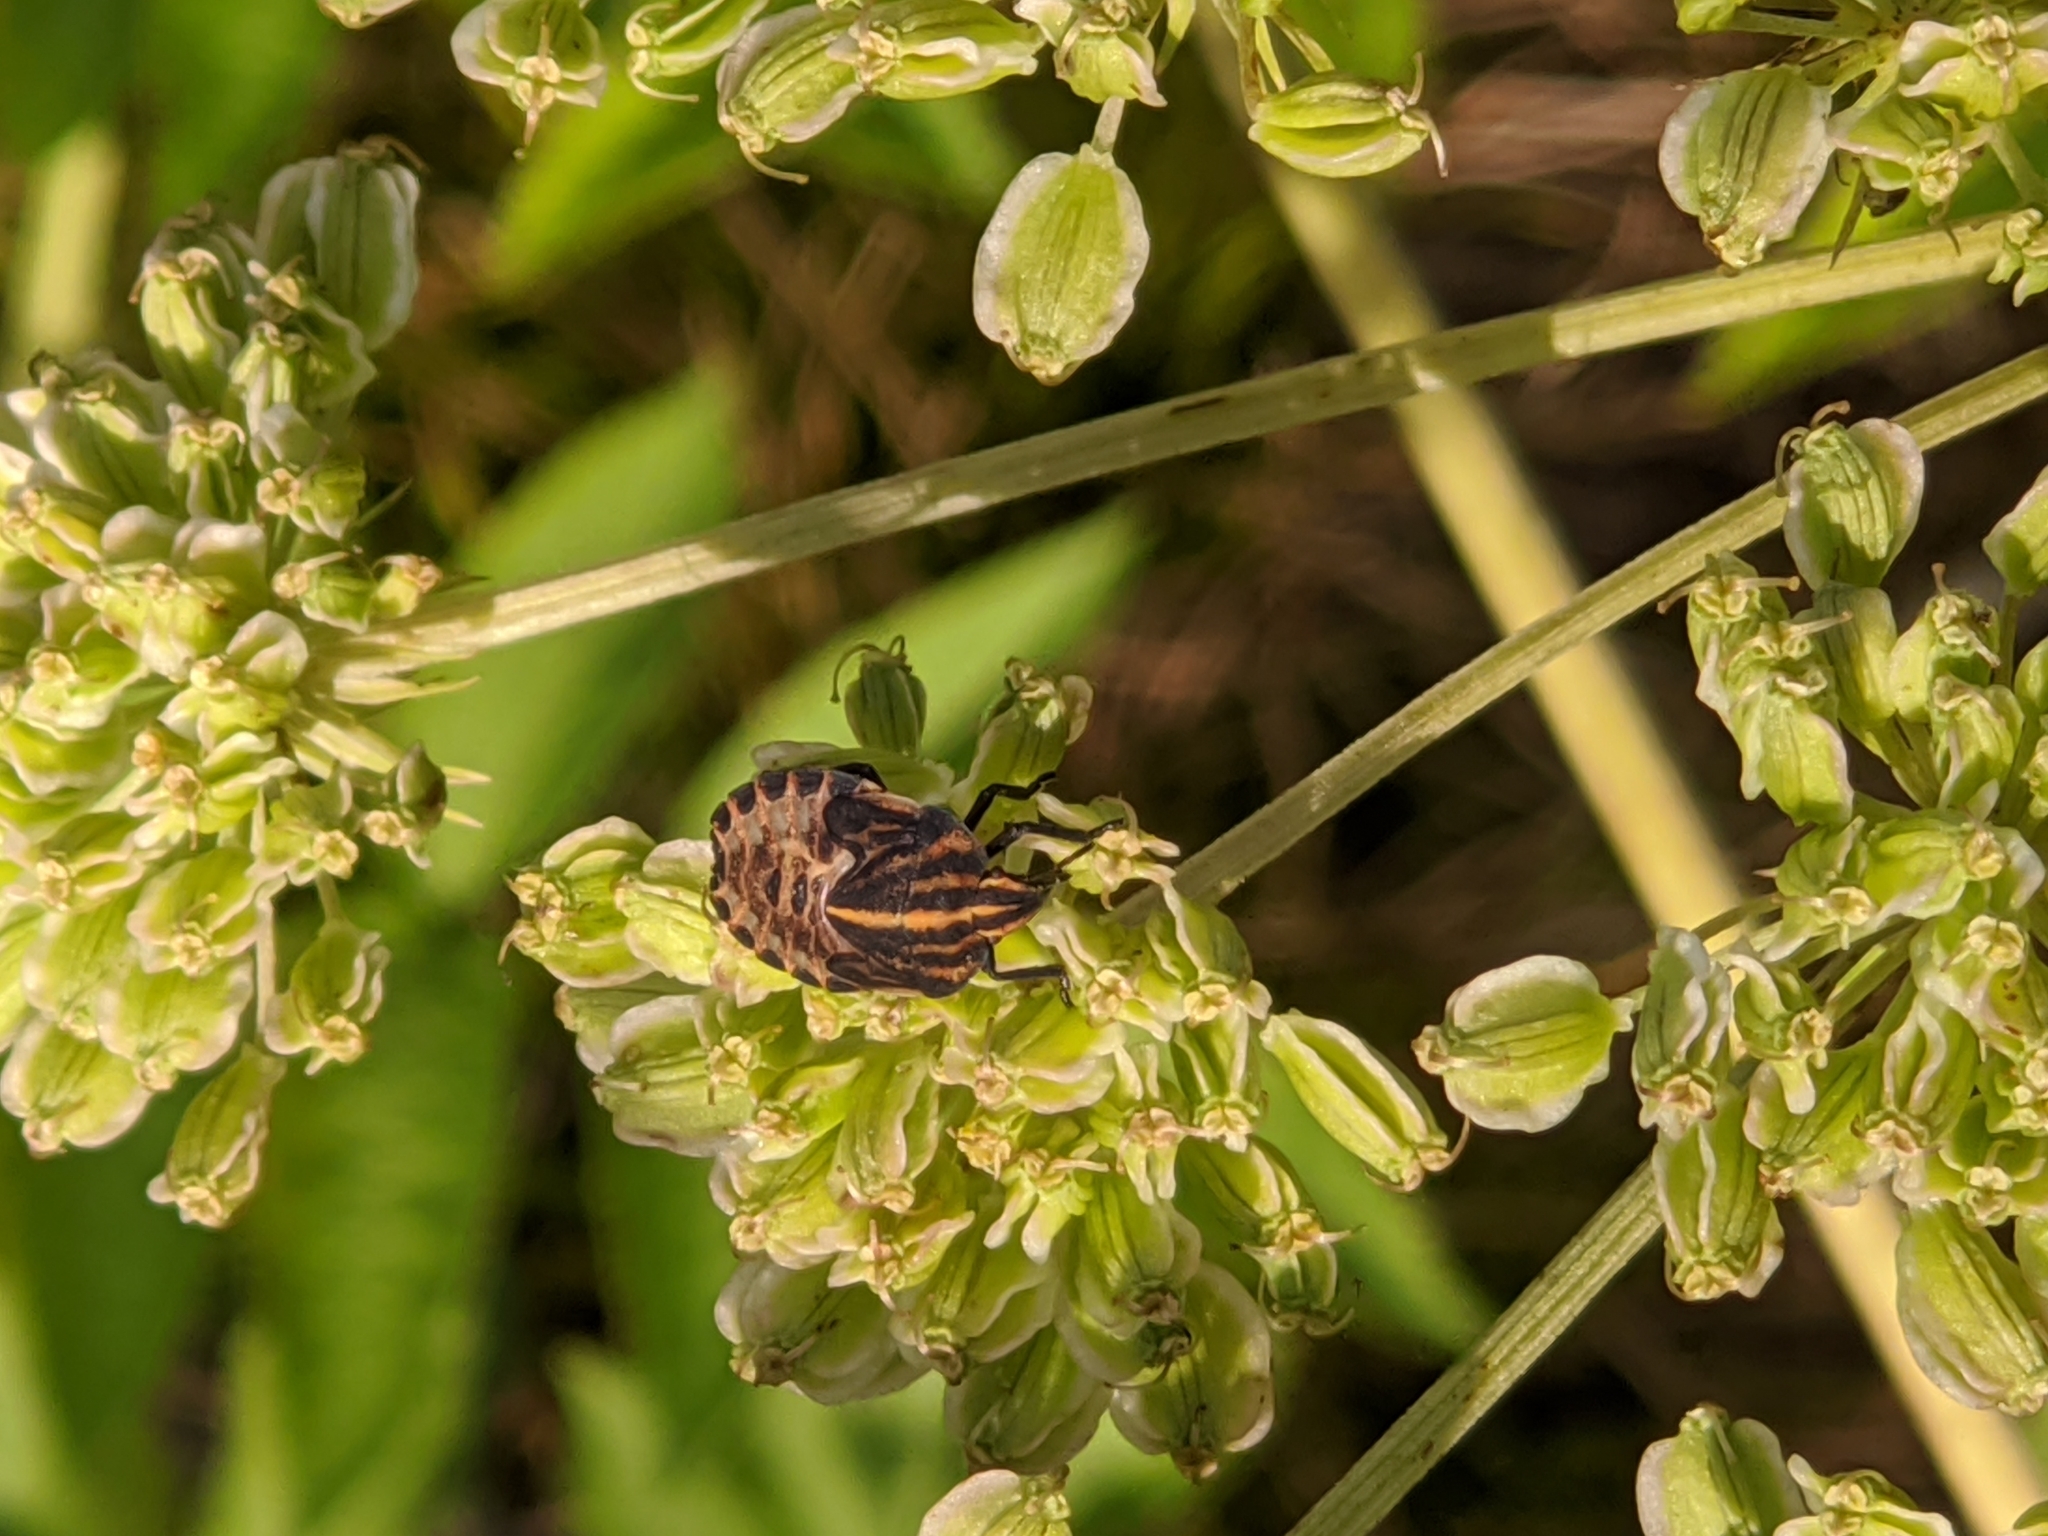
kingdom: Animalia
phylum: Arthropoda
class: Insecta
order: Hemiptera
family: Pentatomidae
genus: Graphosoma
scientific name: Graphosoma italicum
